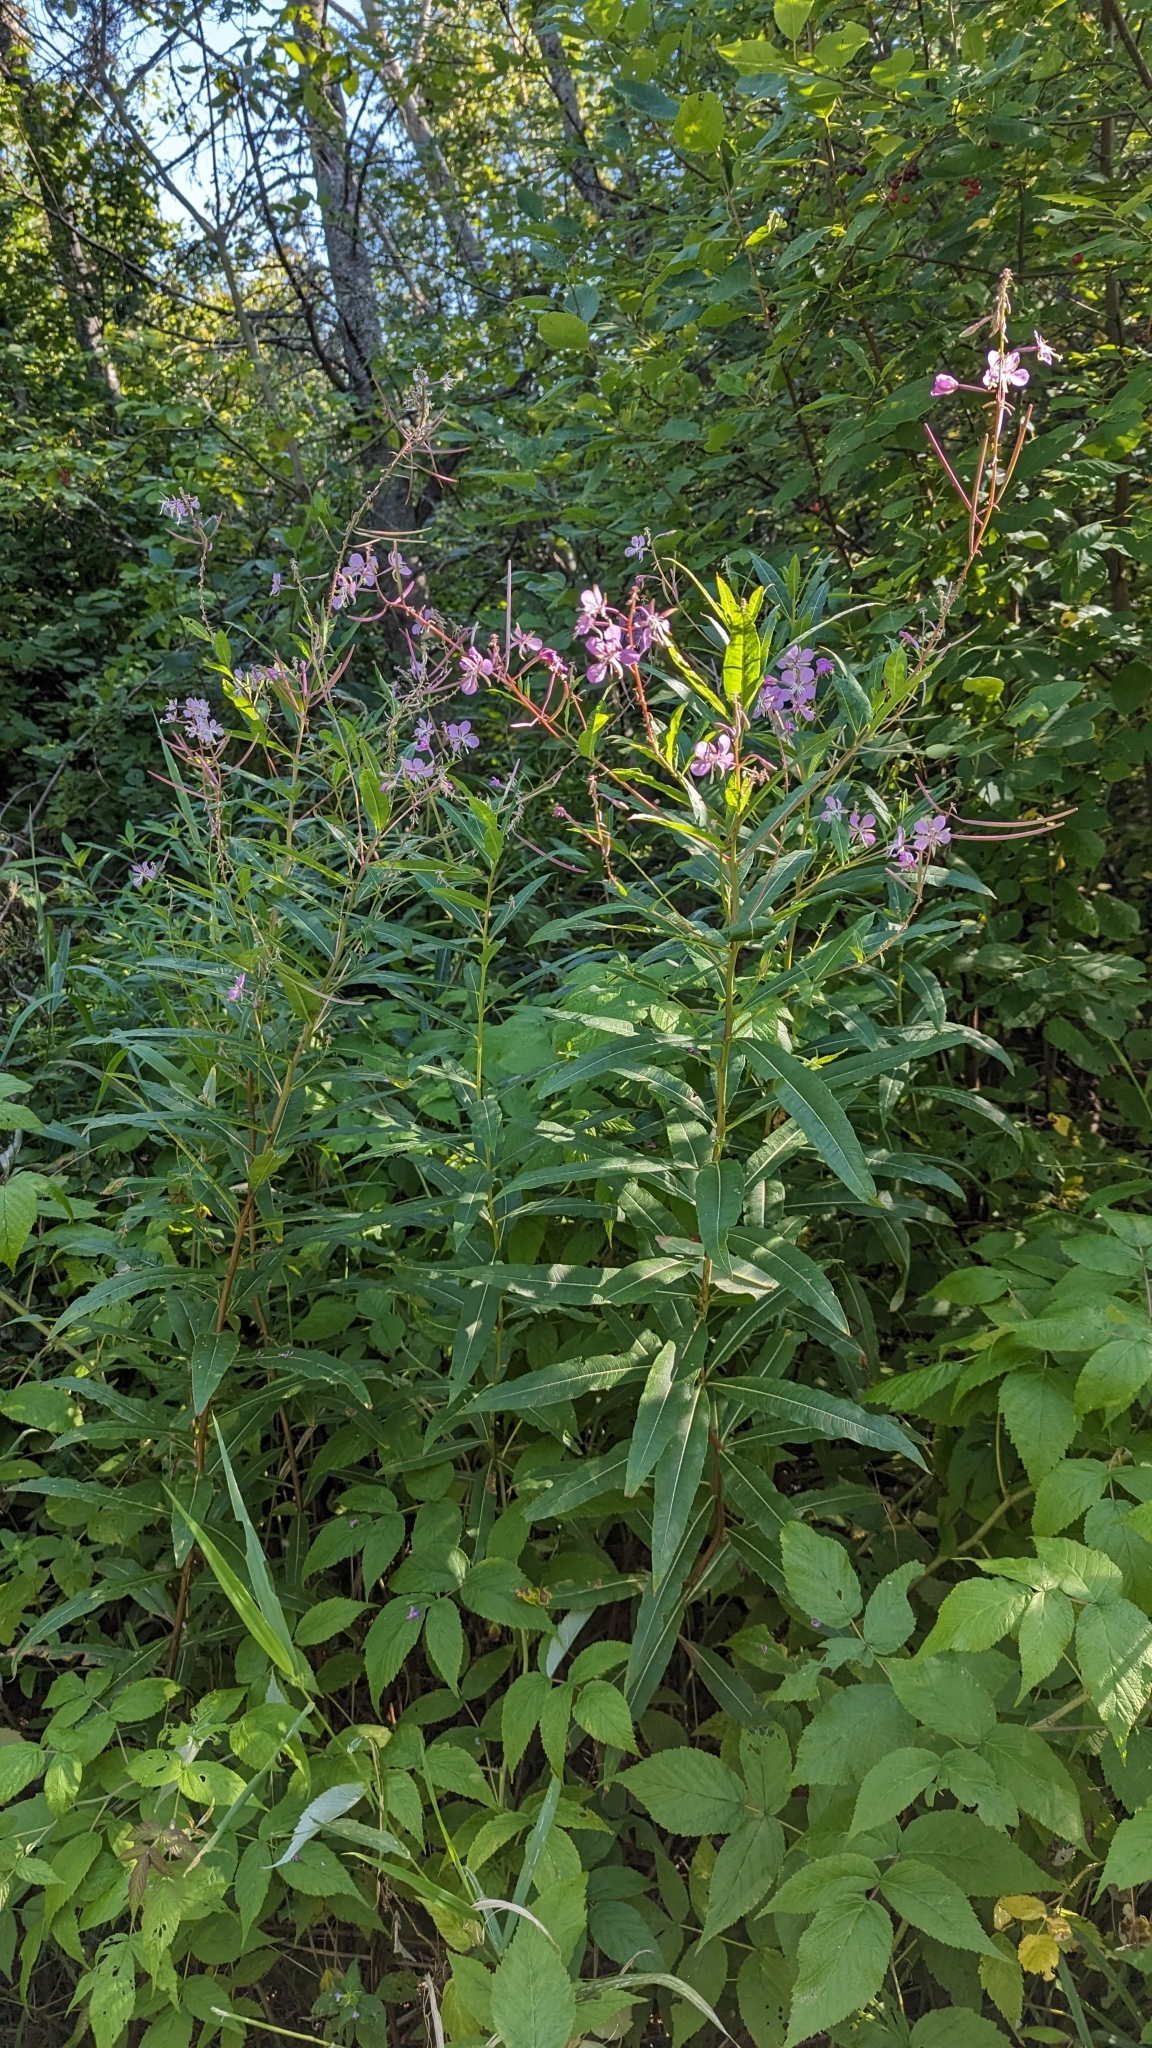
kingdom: Plantae
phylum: Tracheophyta
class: Magnoliopsida
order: Myrtales
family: Onagraceae
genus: Chamaenerion
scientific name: Chamaenerion angustifolium
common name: Fireweed
